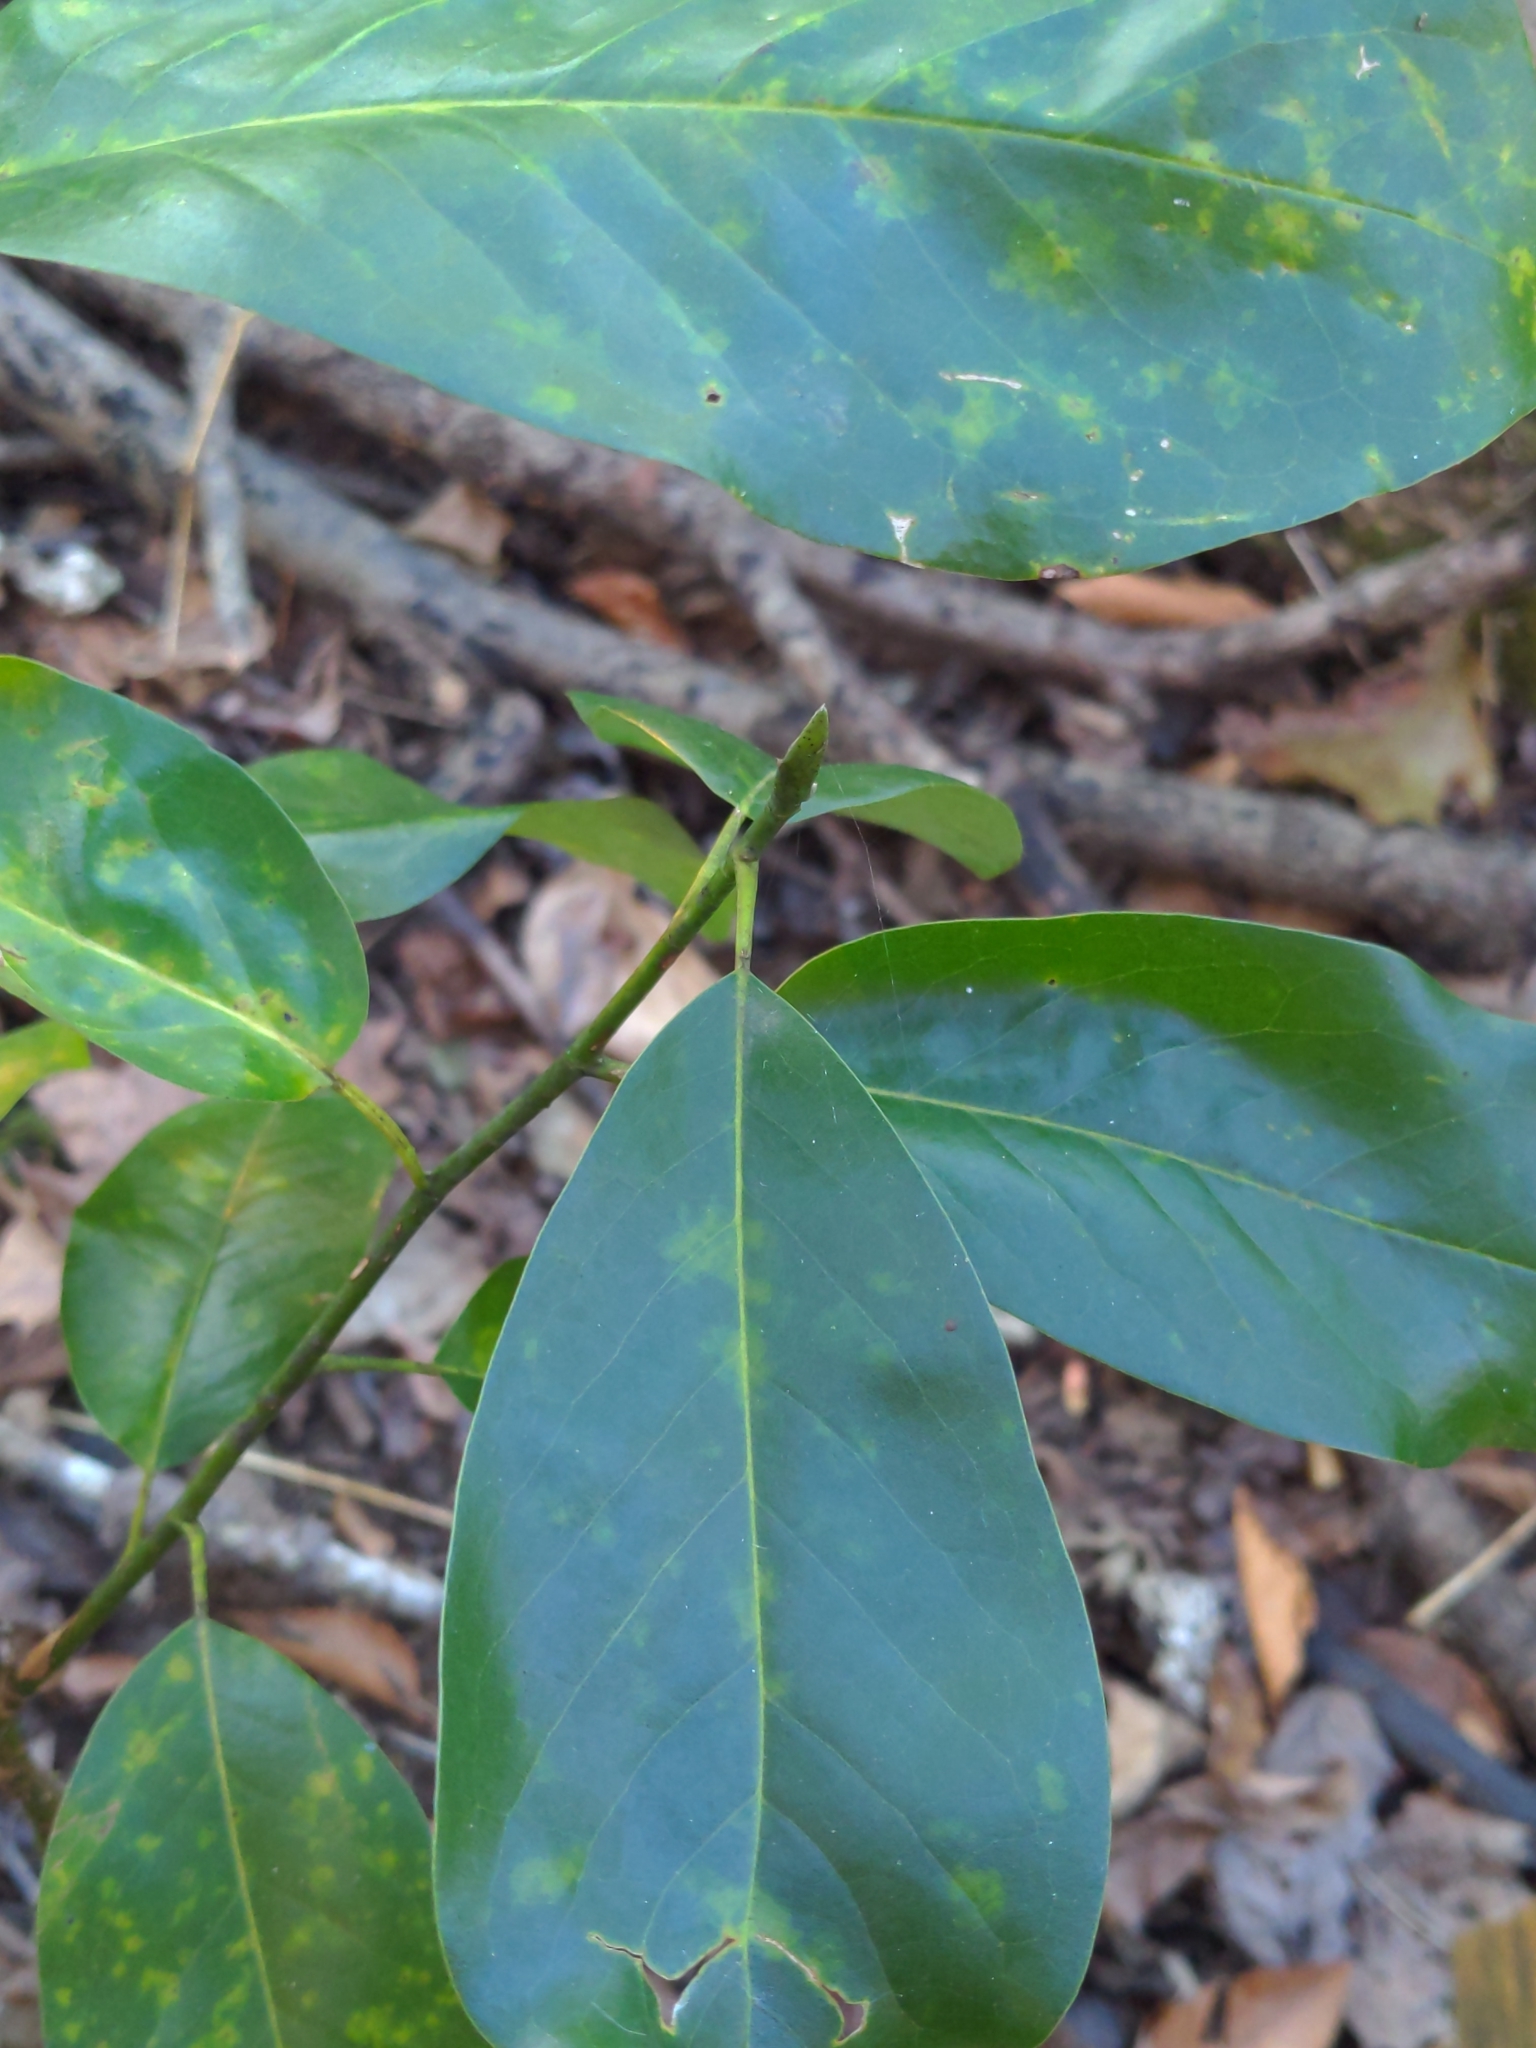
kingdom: Plantae
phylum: Tracheophyta
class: Magnoliopsida
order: Magnoliales
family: Magnoliaceae
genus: Magnolia
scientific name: Magnolia virginiana
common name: Swamp bay
